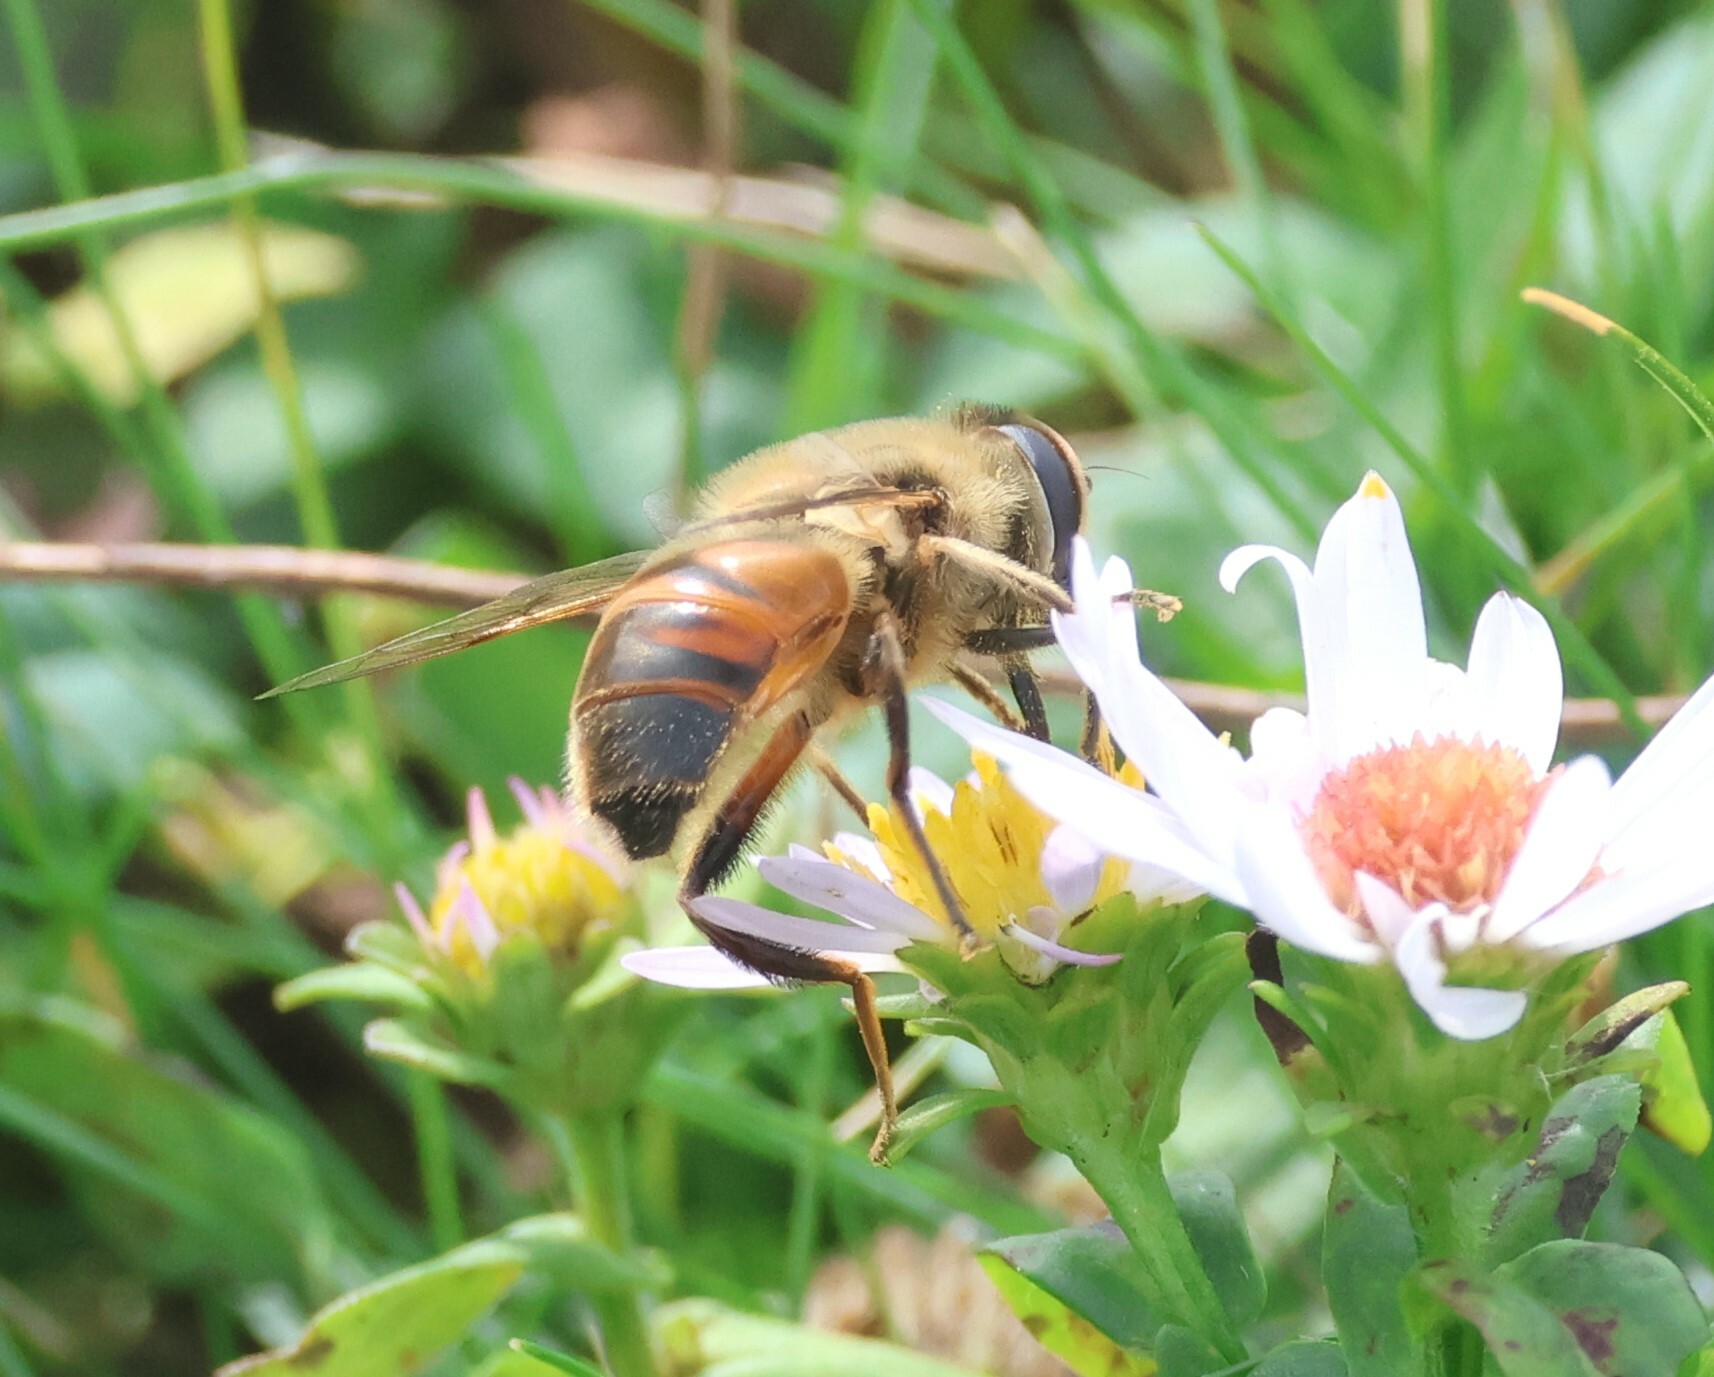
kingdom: Animalia
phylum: Arthropoda
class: Insecta
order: Diptera
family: Syrphidae
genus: Eristalis
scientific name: Eristalis tenax
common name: Drone fly
